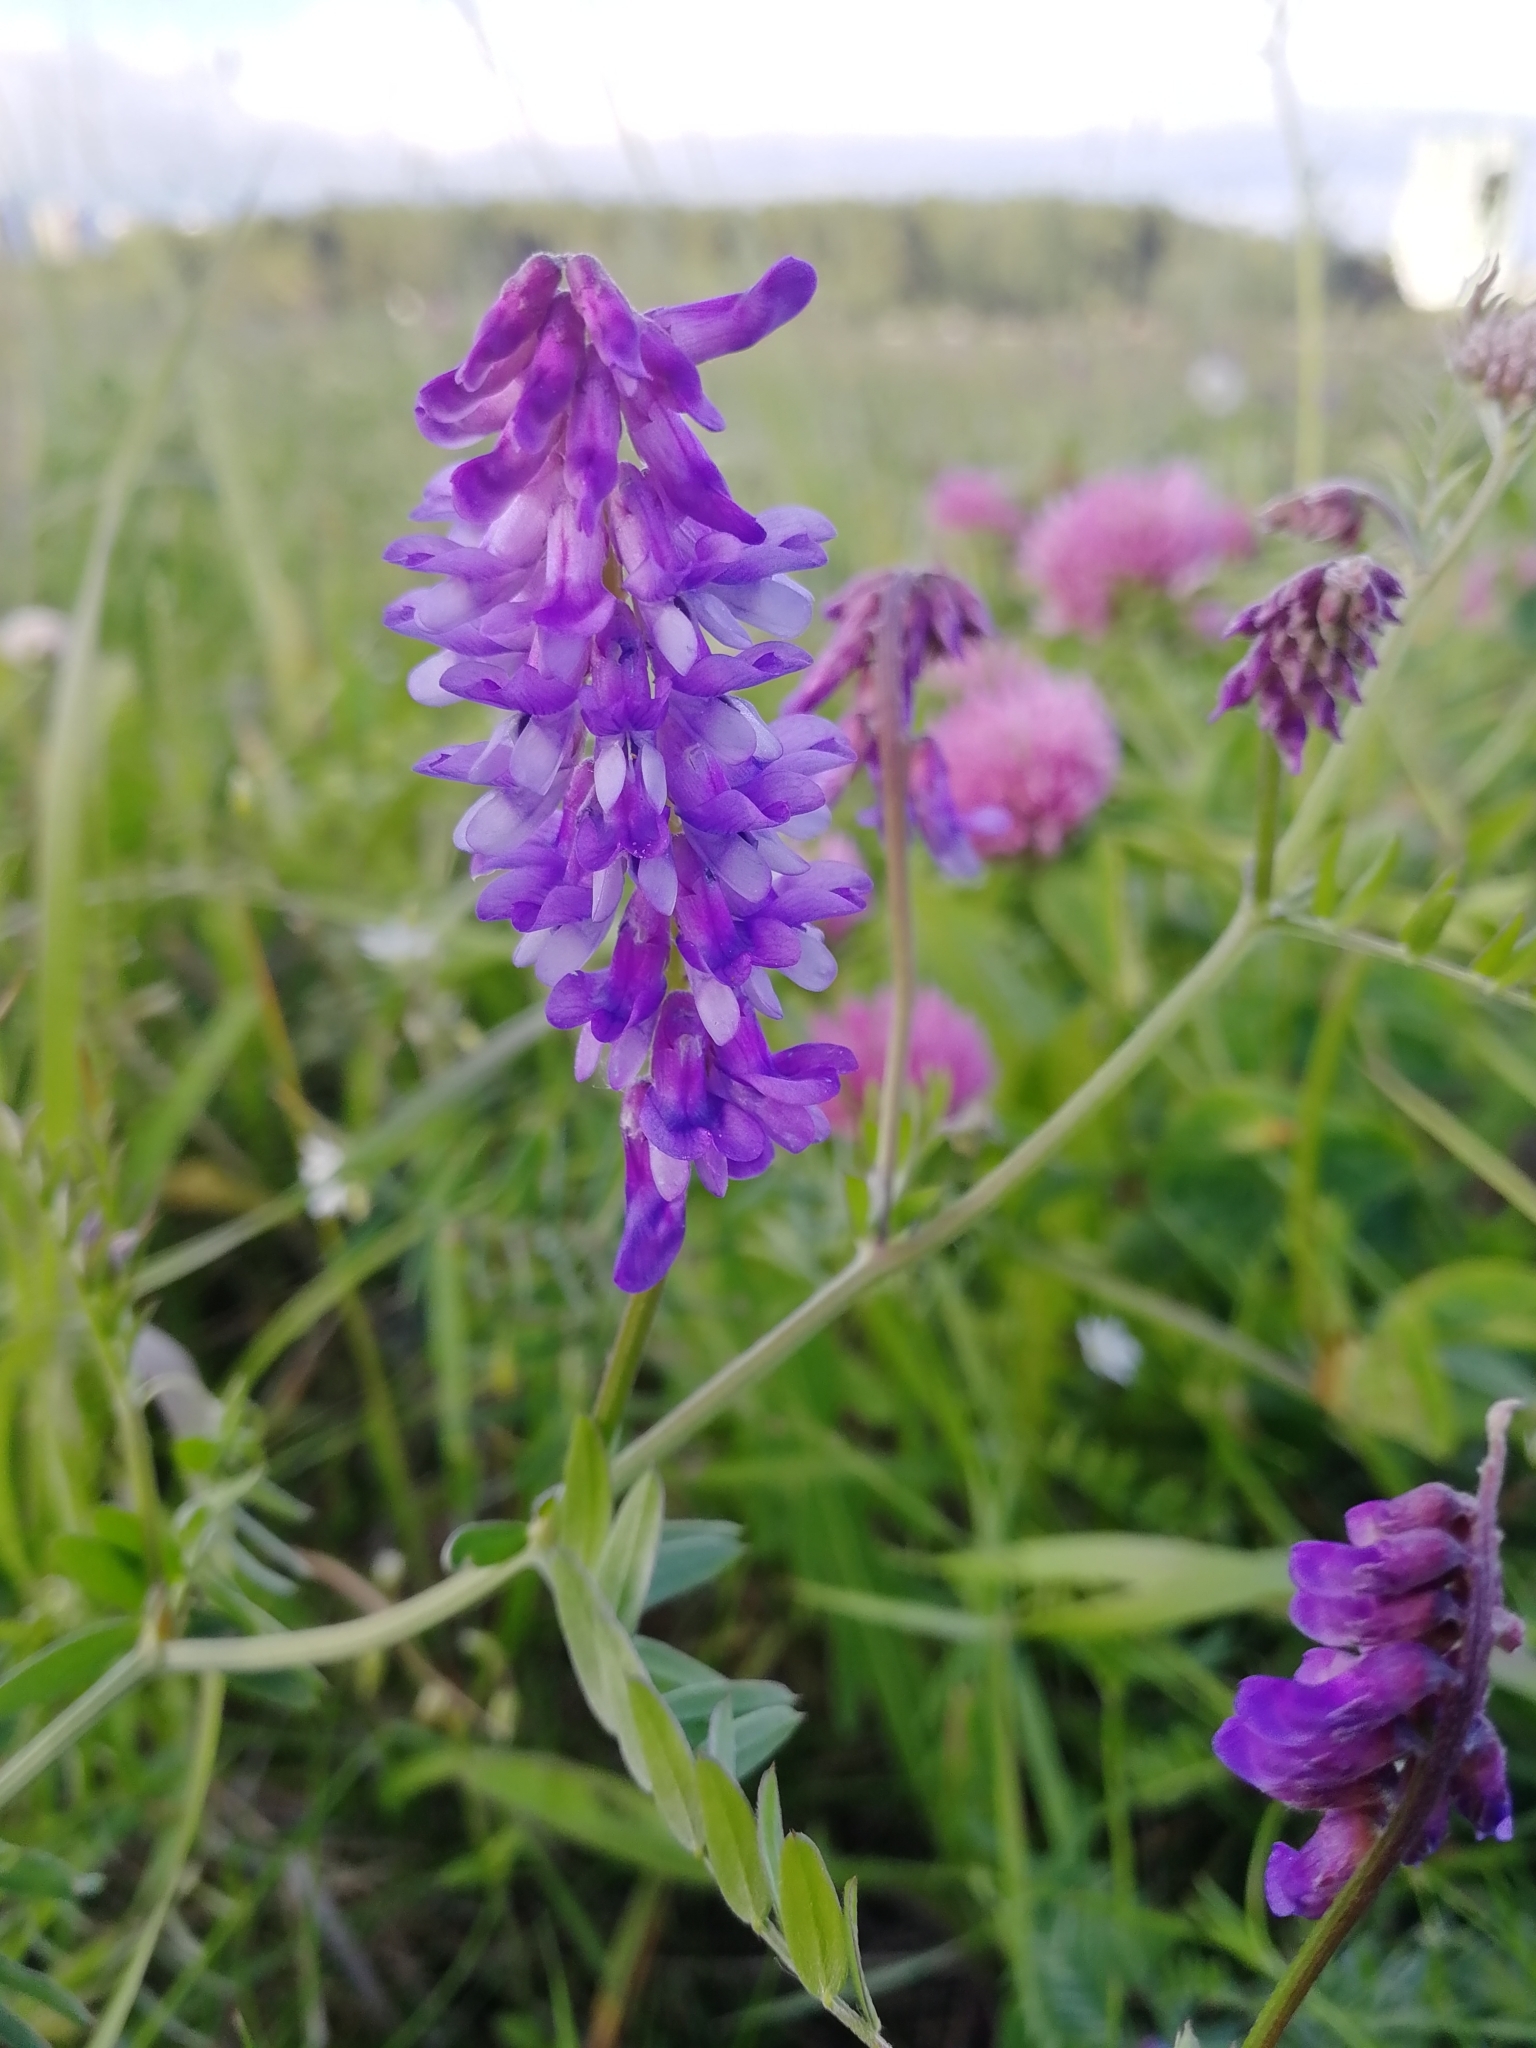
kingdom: Plantae
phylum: Tracheophyta
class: Magnoliopsida
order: Fabales
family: Fabaceae
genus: Vicia
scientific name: Vicia cracca
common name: Bird vetch
